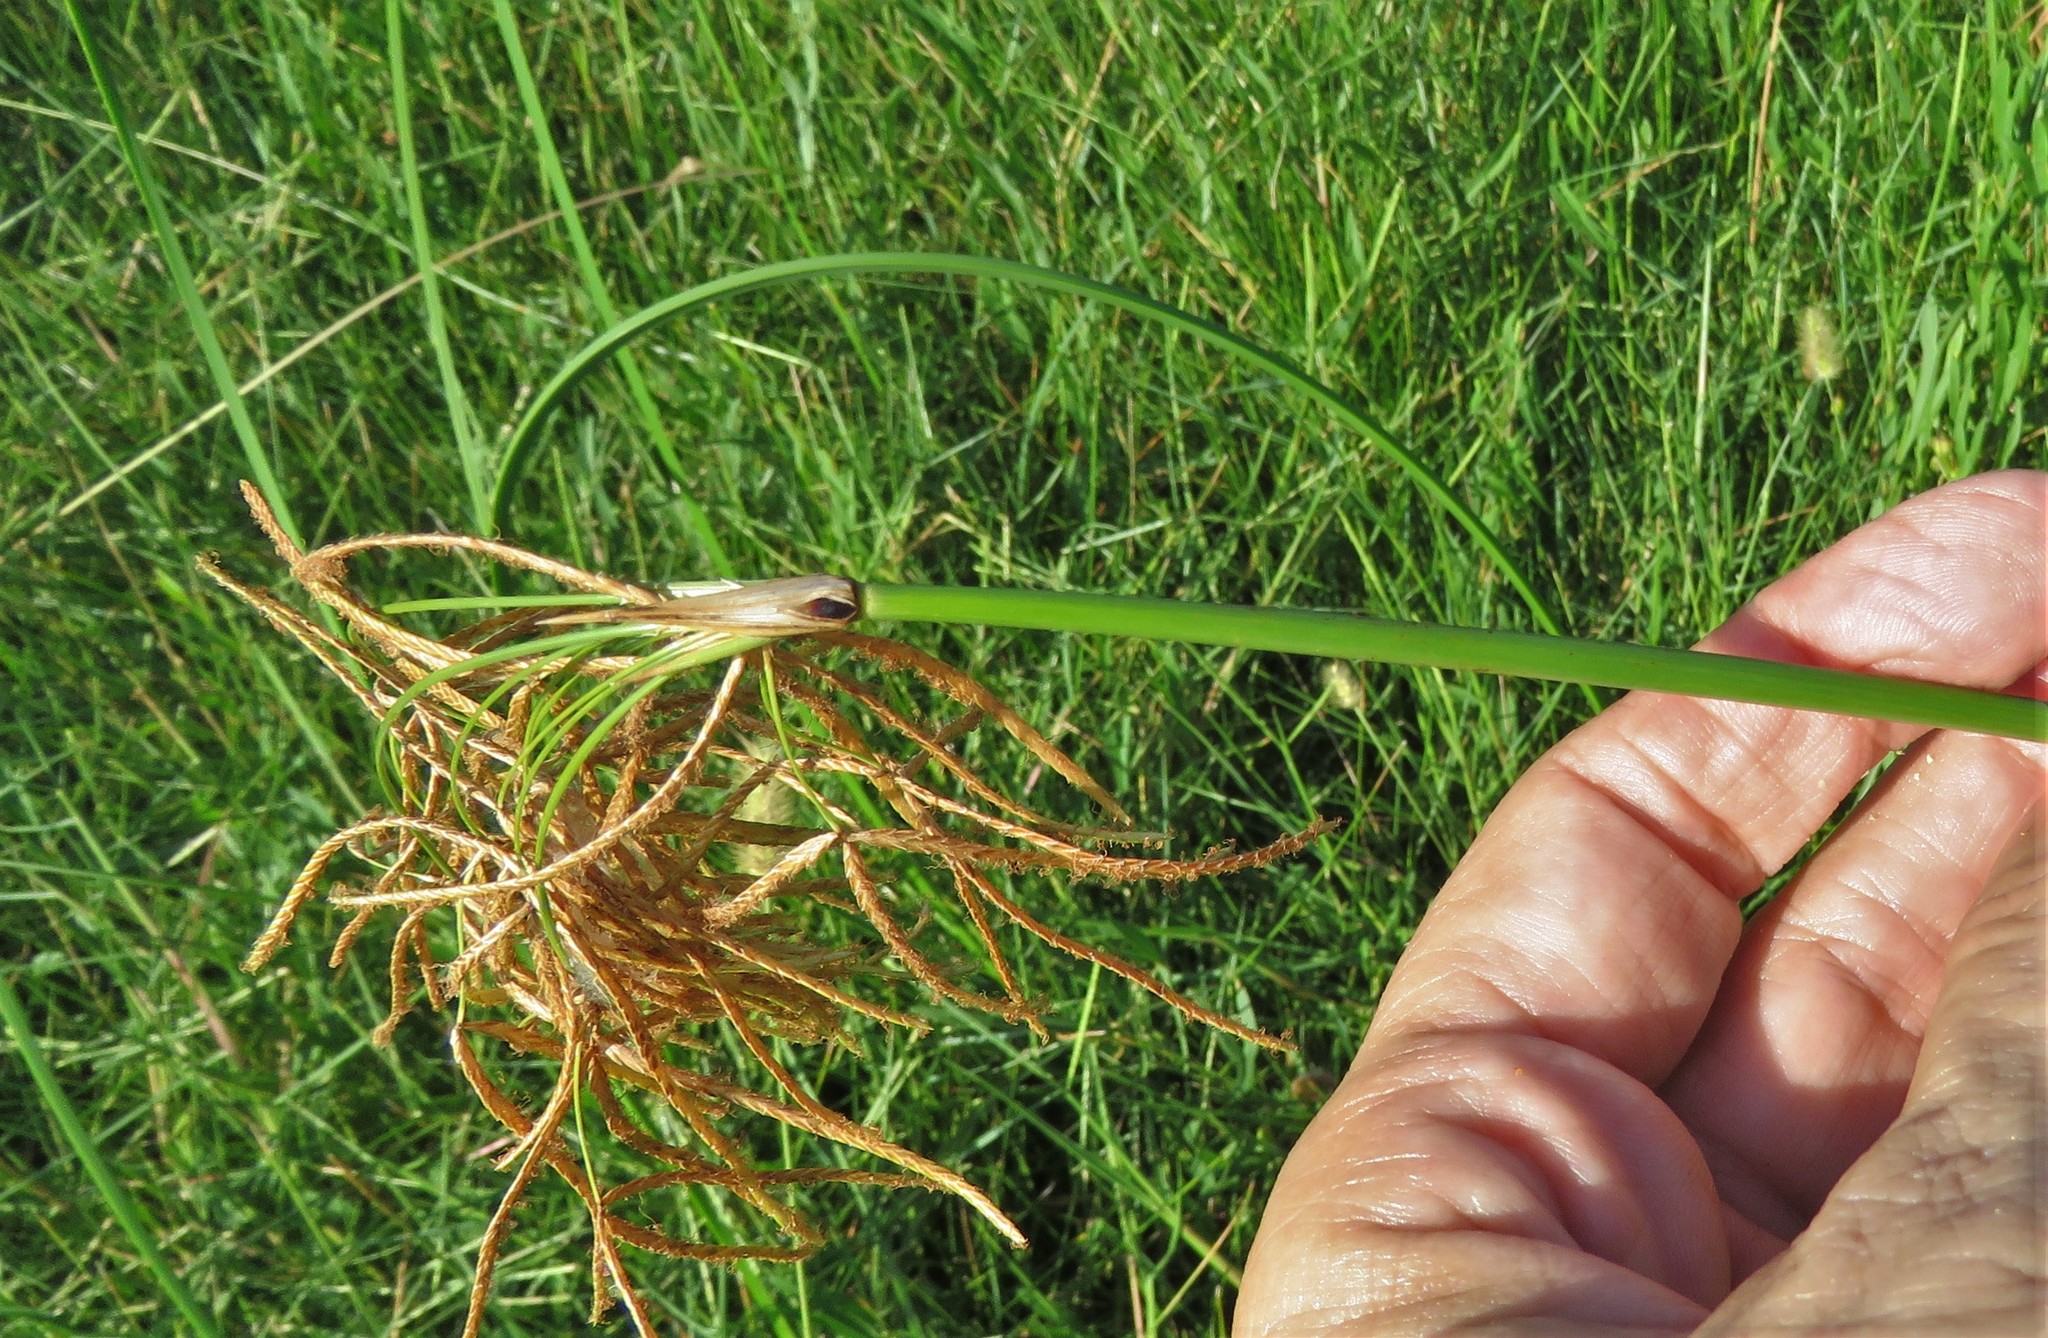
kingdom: Plantae
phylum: Tracheophyta
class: Liliopsida
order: Poales
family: Cyperaceae
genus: Cyperus
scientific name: Cyperus articulatus
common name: Jointed flatsedge
